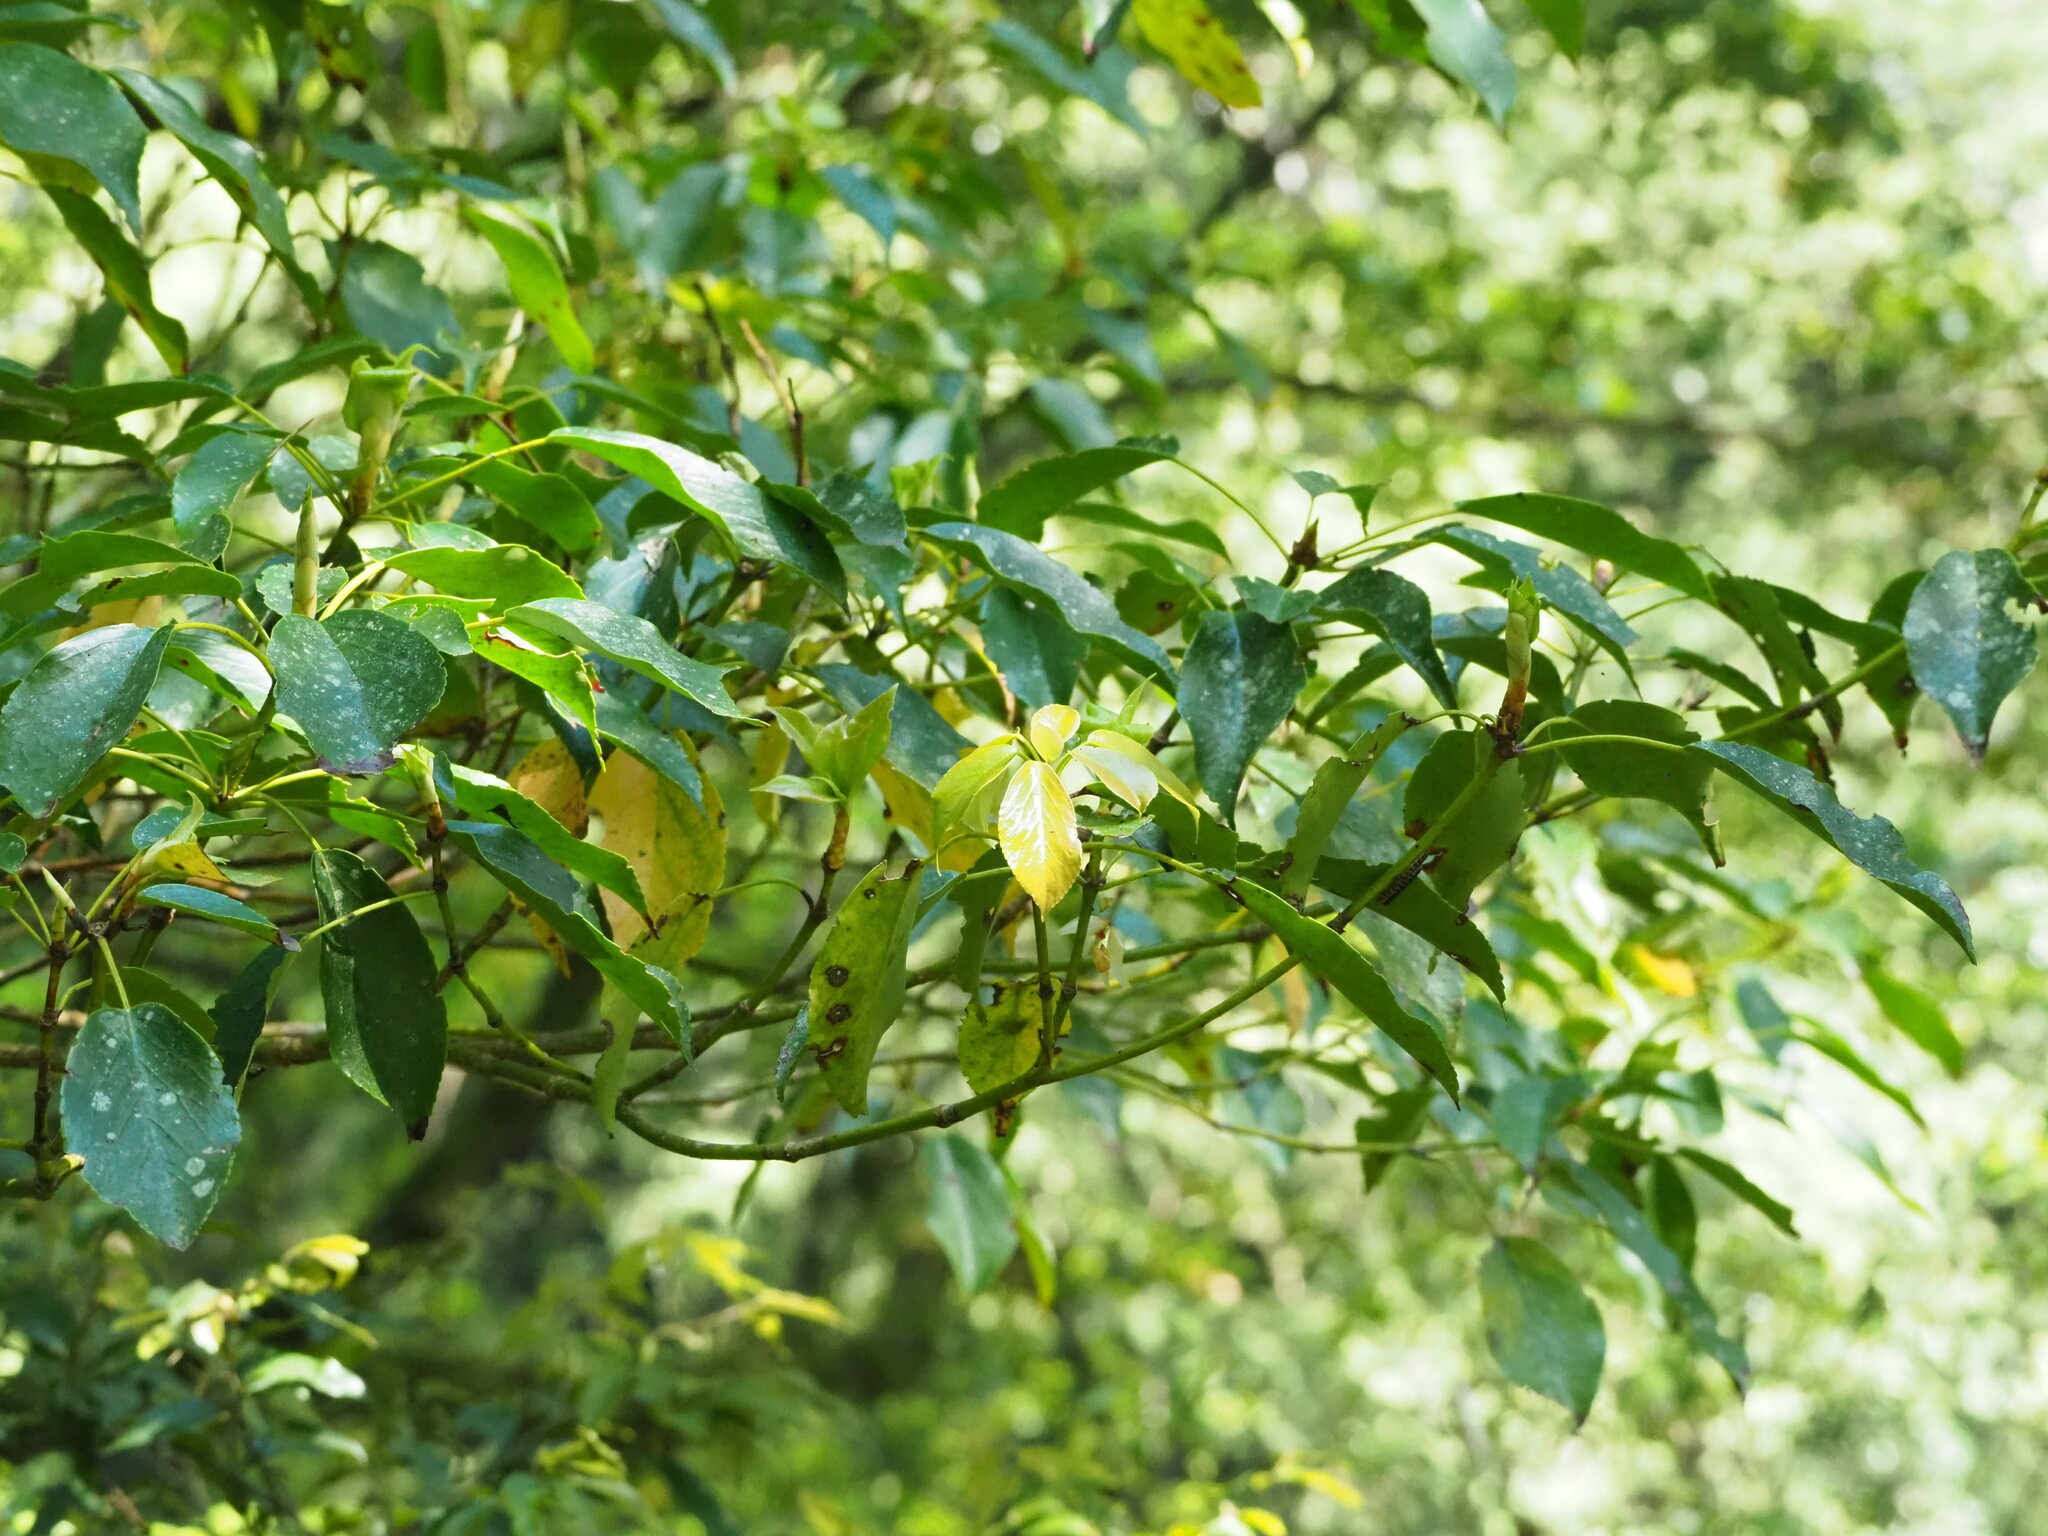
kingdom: Plantae
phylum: Tracheophyta
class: Magnoliopsida
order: Trochodendrales
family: Trochodendraceae
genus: Trochodendron
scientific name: Trochodendron aralioides
